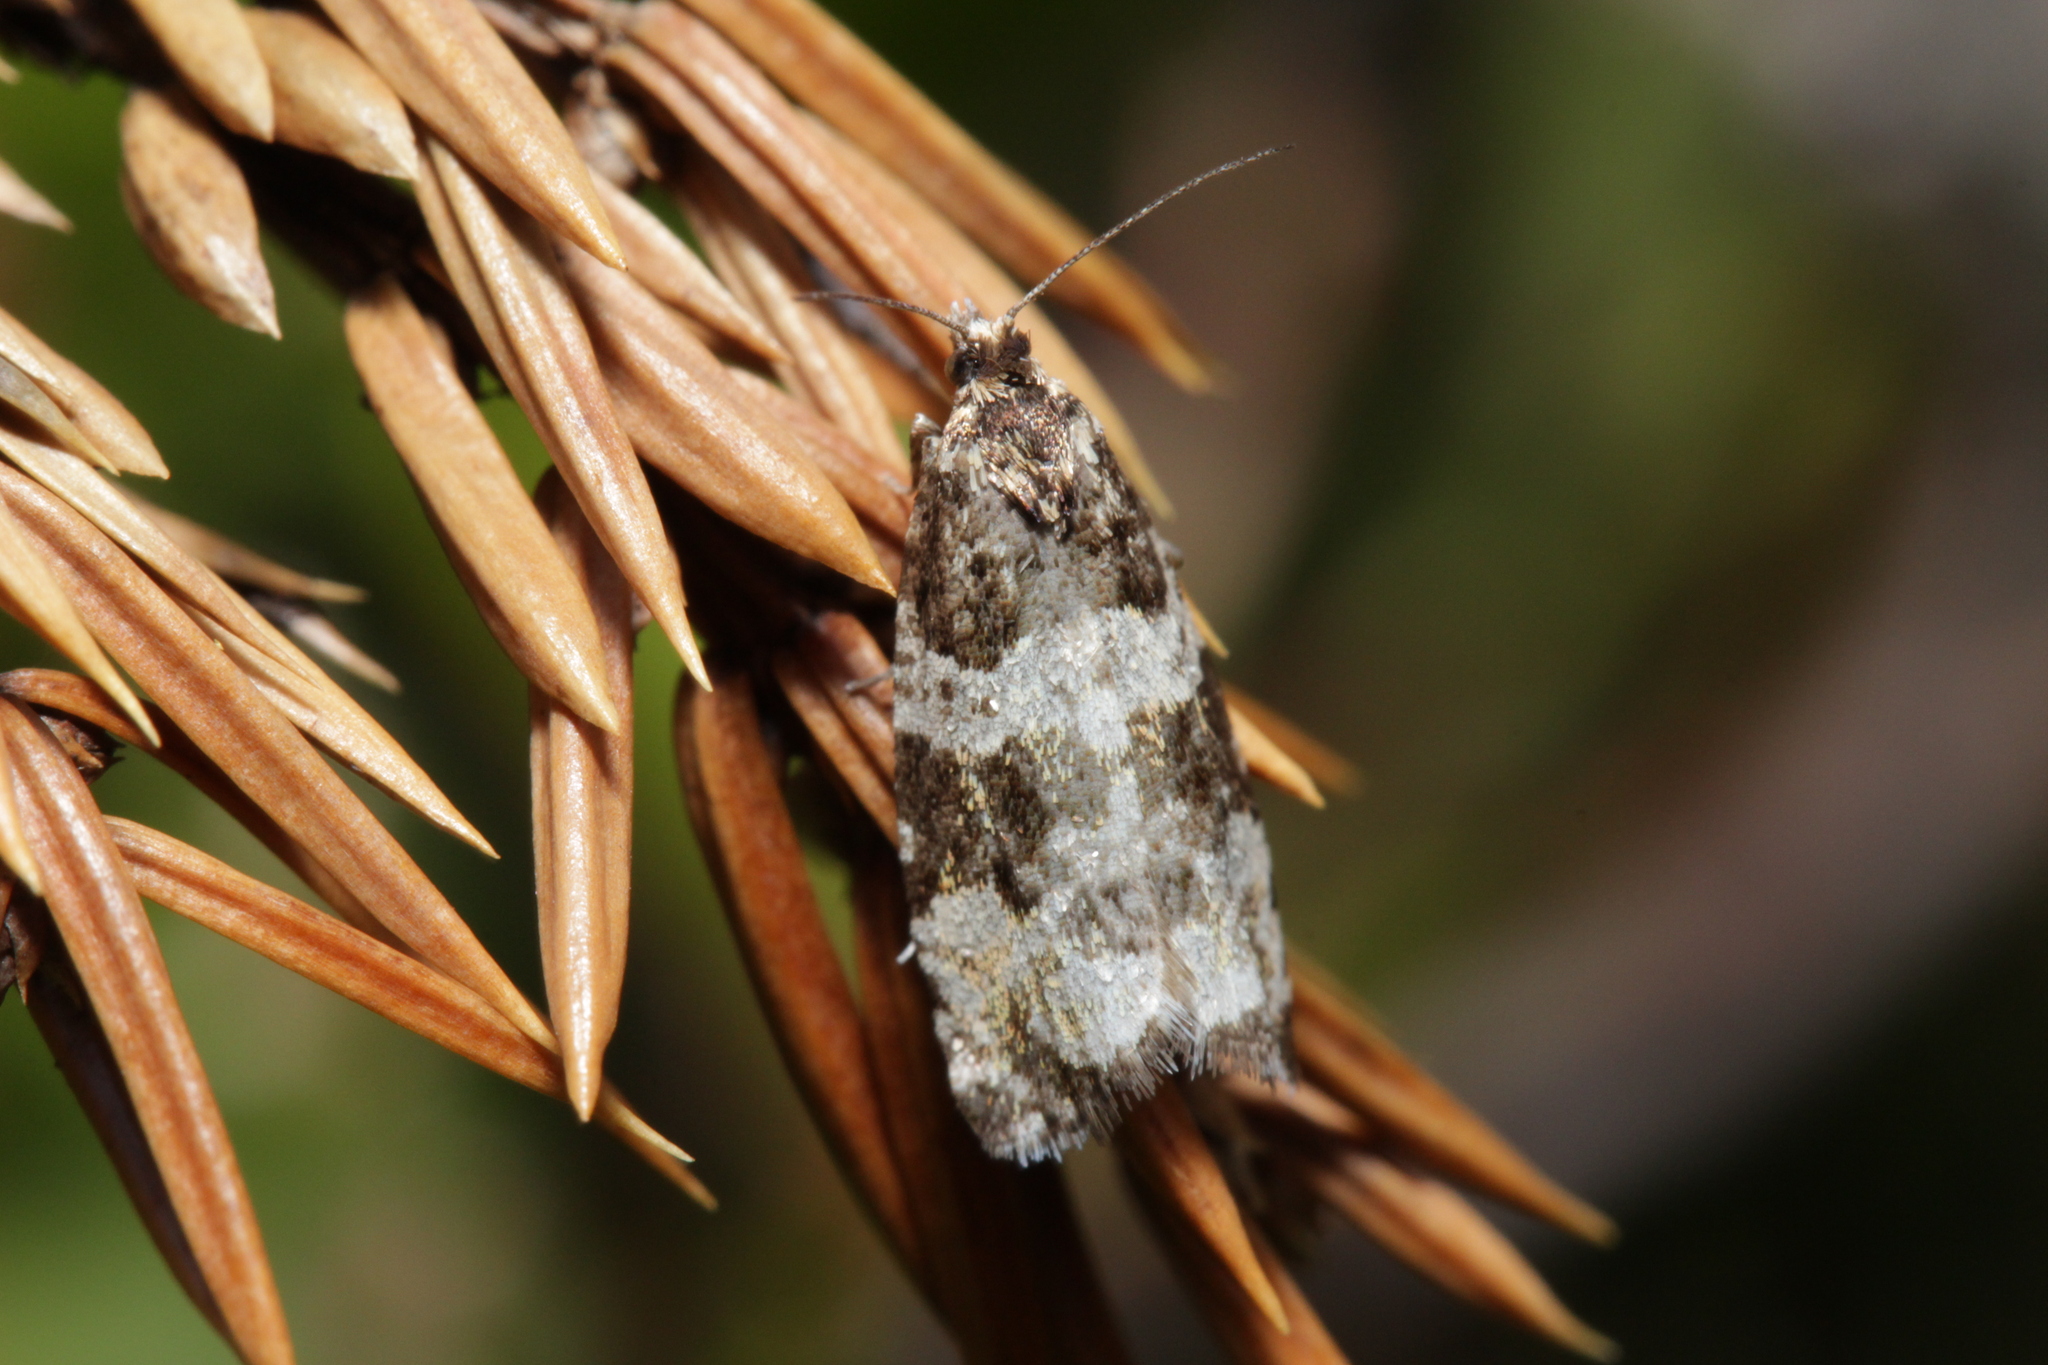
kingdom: Animalia
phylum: Arthropoda
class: Insecta
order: Lepidoptera
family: Tortricidae
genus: Argyroploce
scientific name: Argyroploce bipunctana
